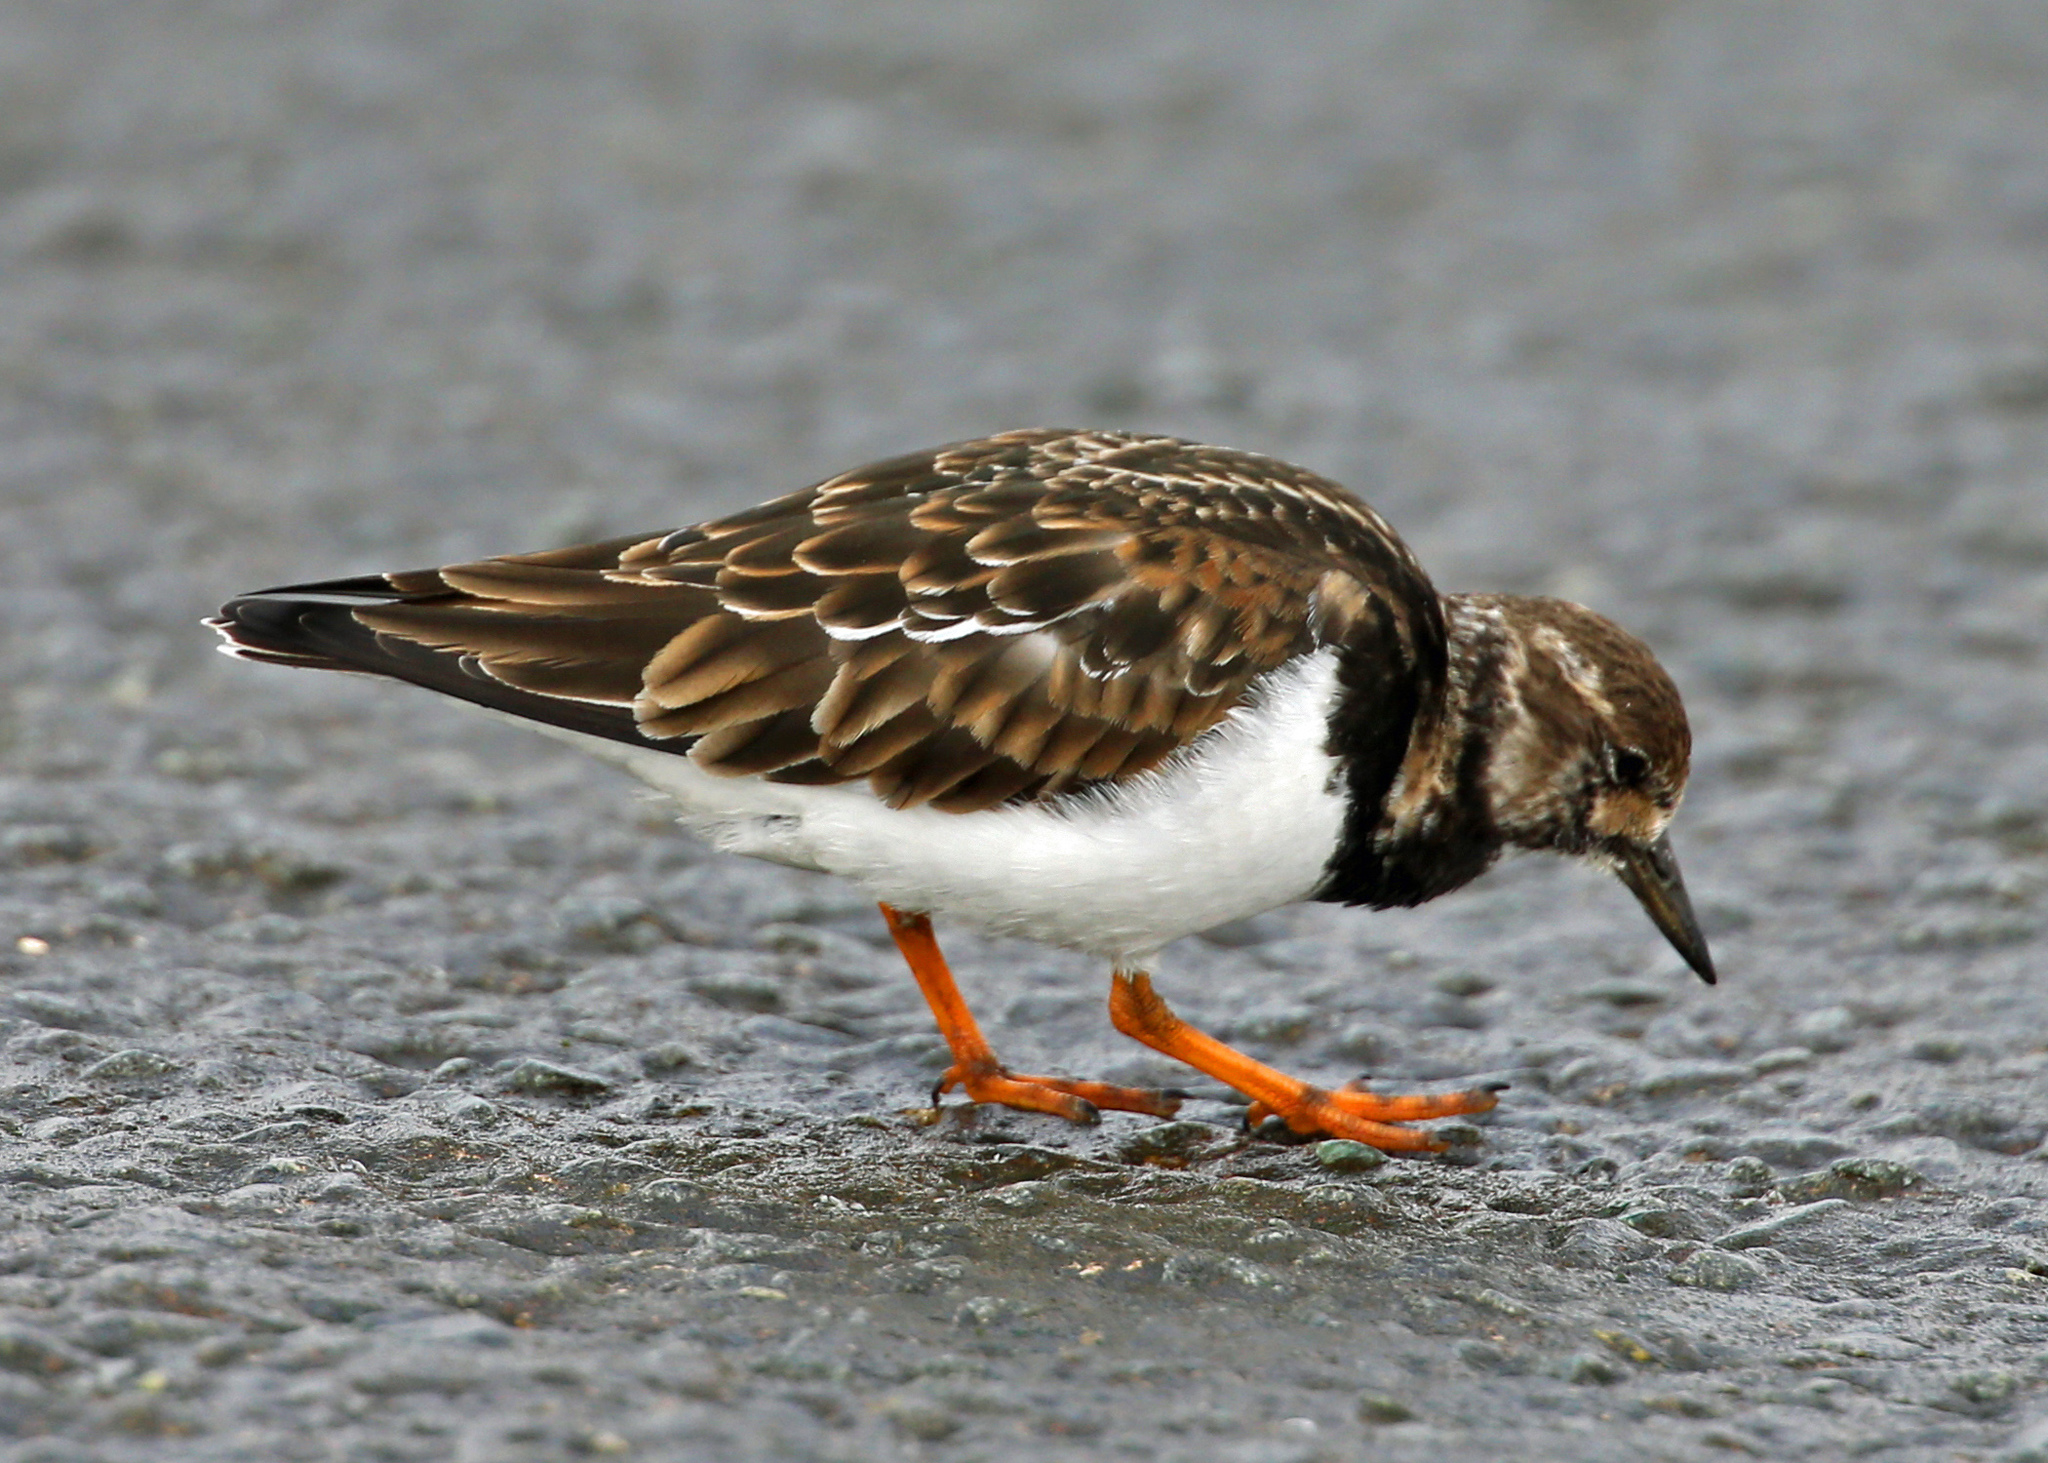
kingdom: Animalia
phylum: Chordata
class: Aves
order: Charadriiformes
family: Scolopacidae
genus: Arenaria
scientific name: Arenaria interpres
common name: Ruddy turnstone
